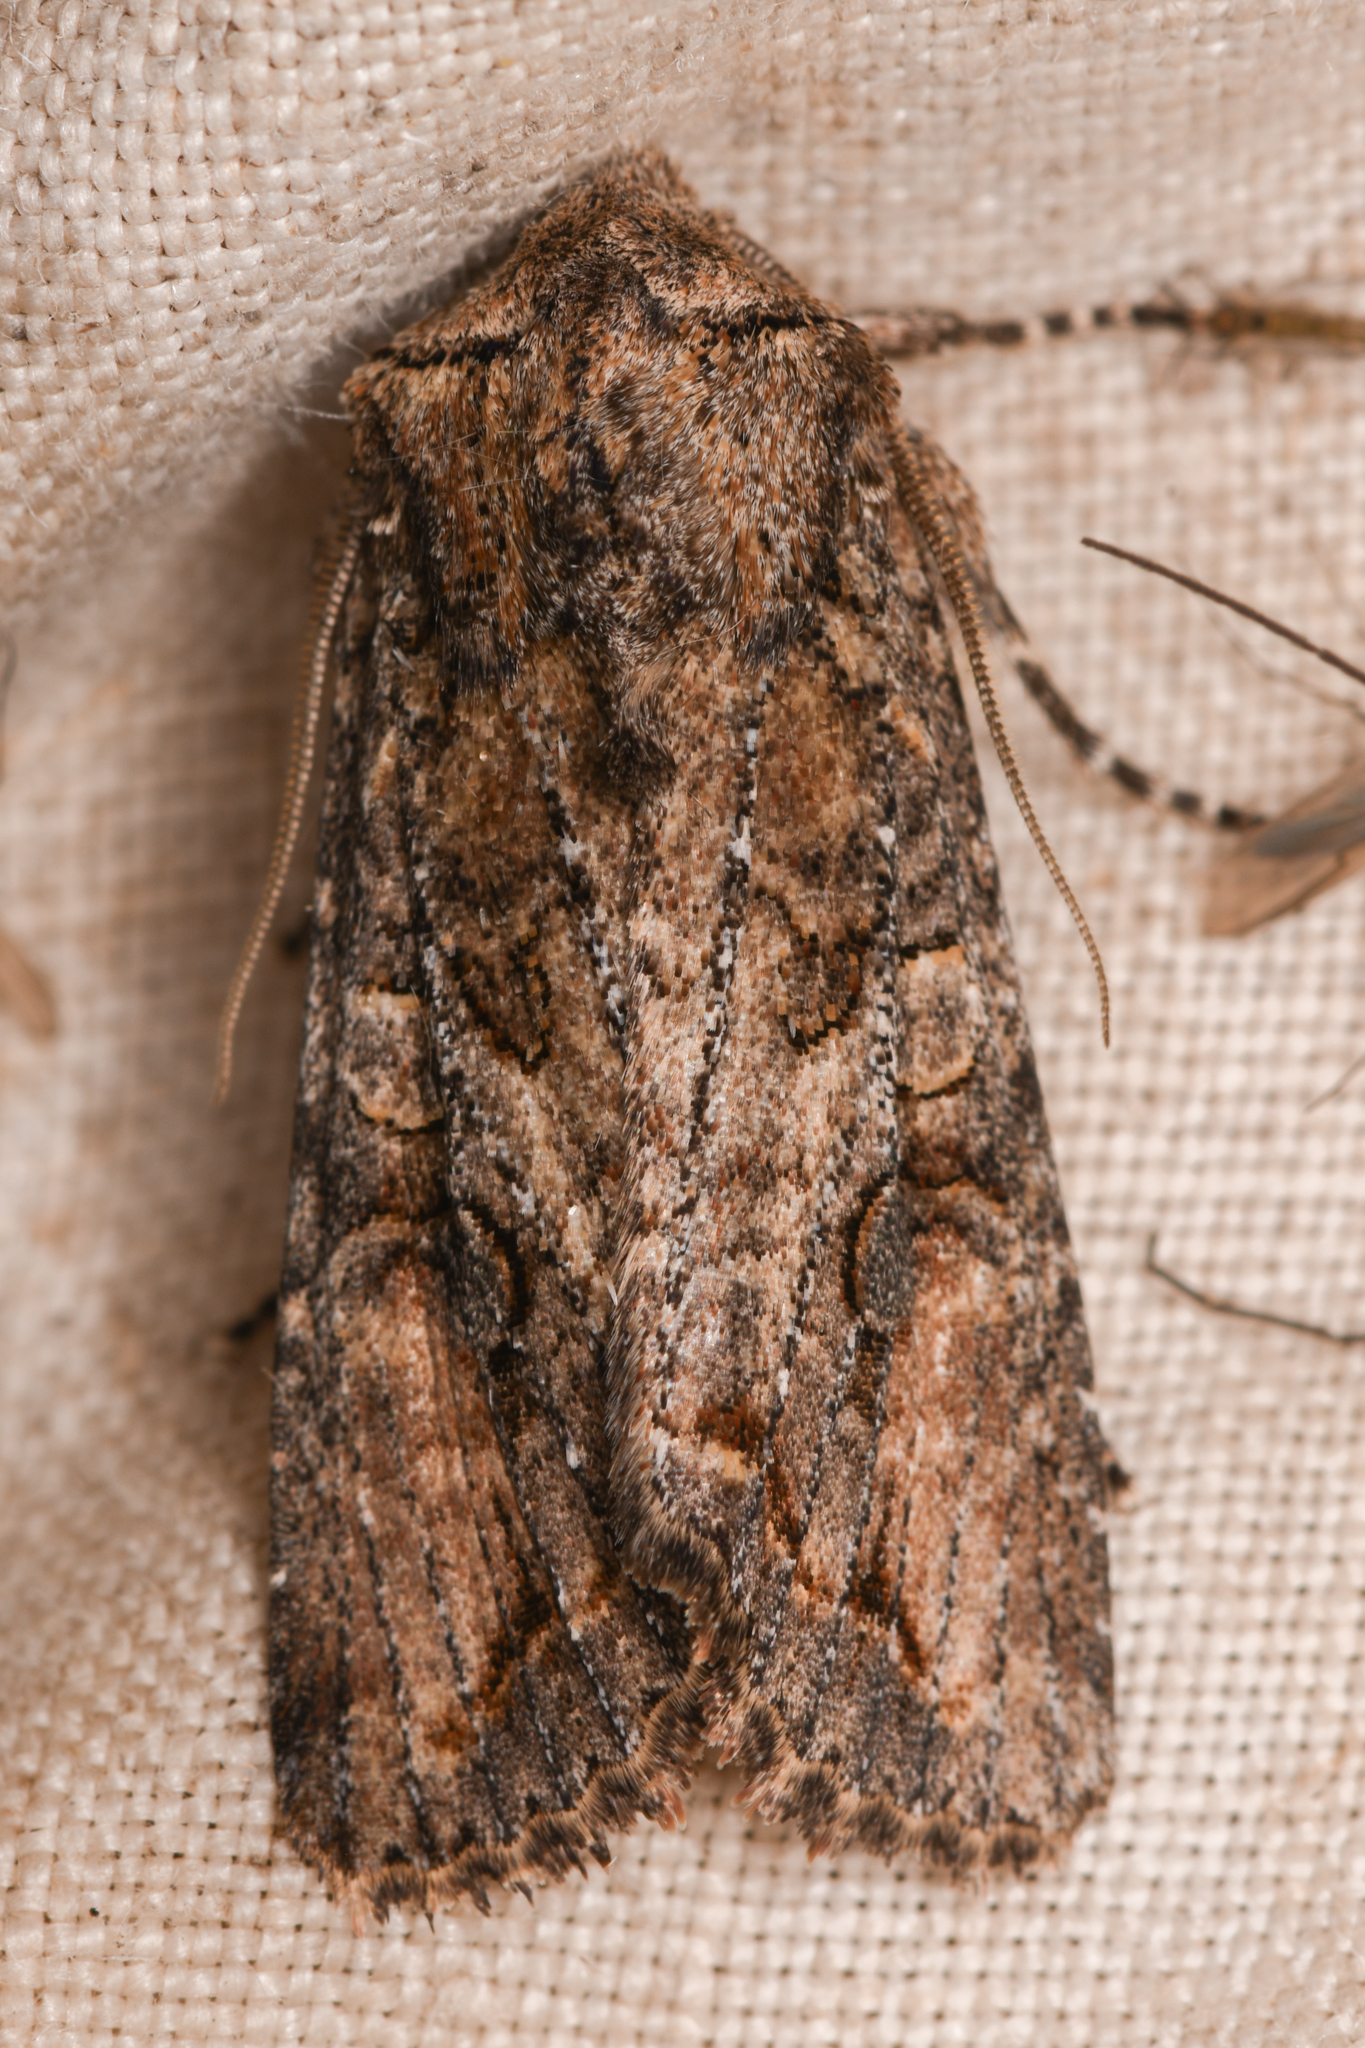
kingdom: Animalia
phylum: Arthropoda
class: Insecta
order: Lepidoptera
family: Noctuidae
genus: Egira
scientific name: Egira perlubens
